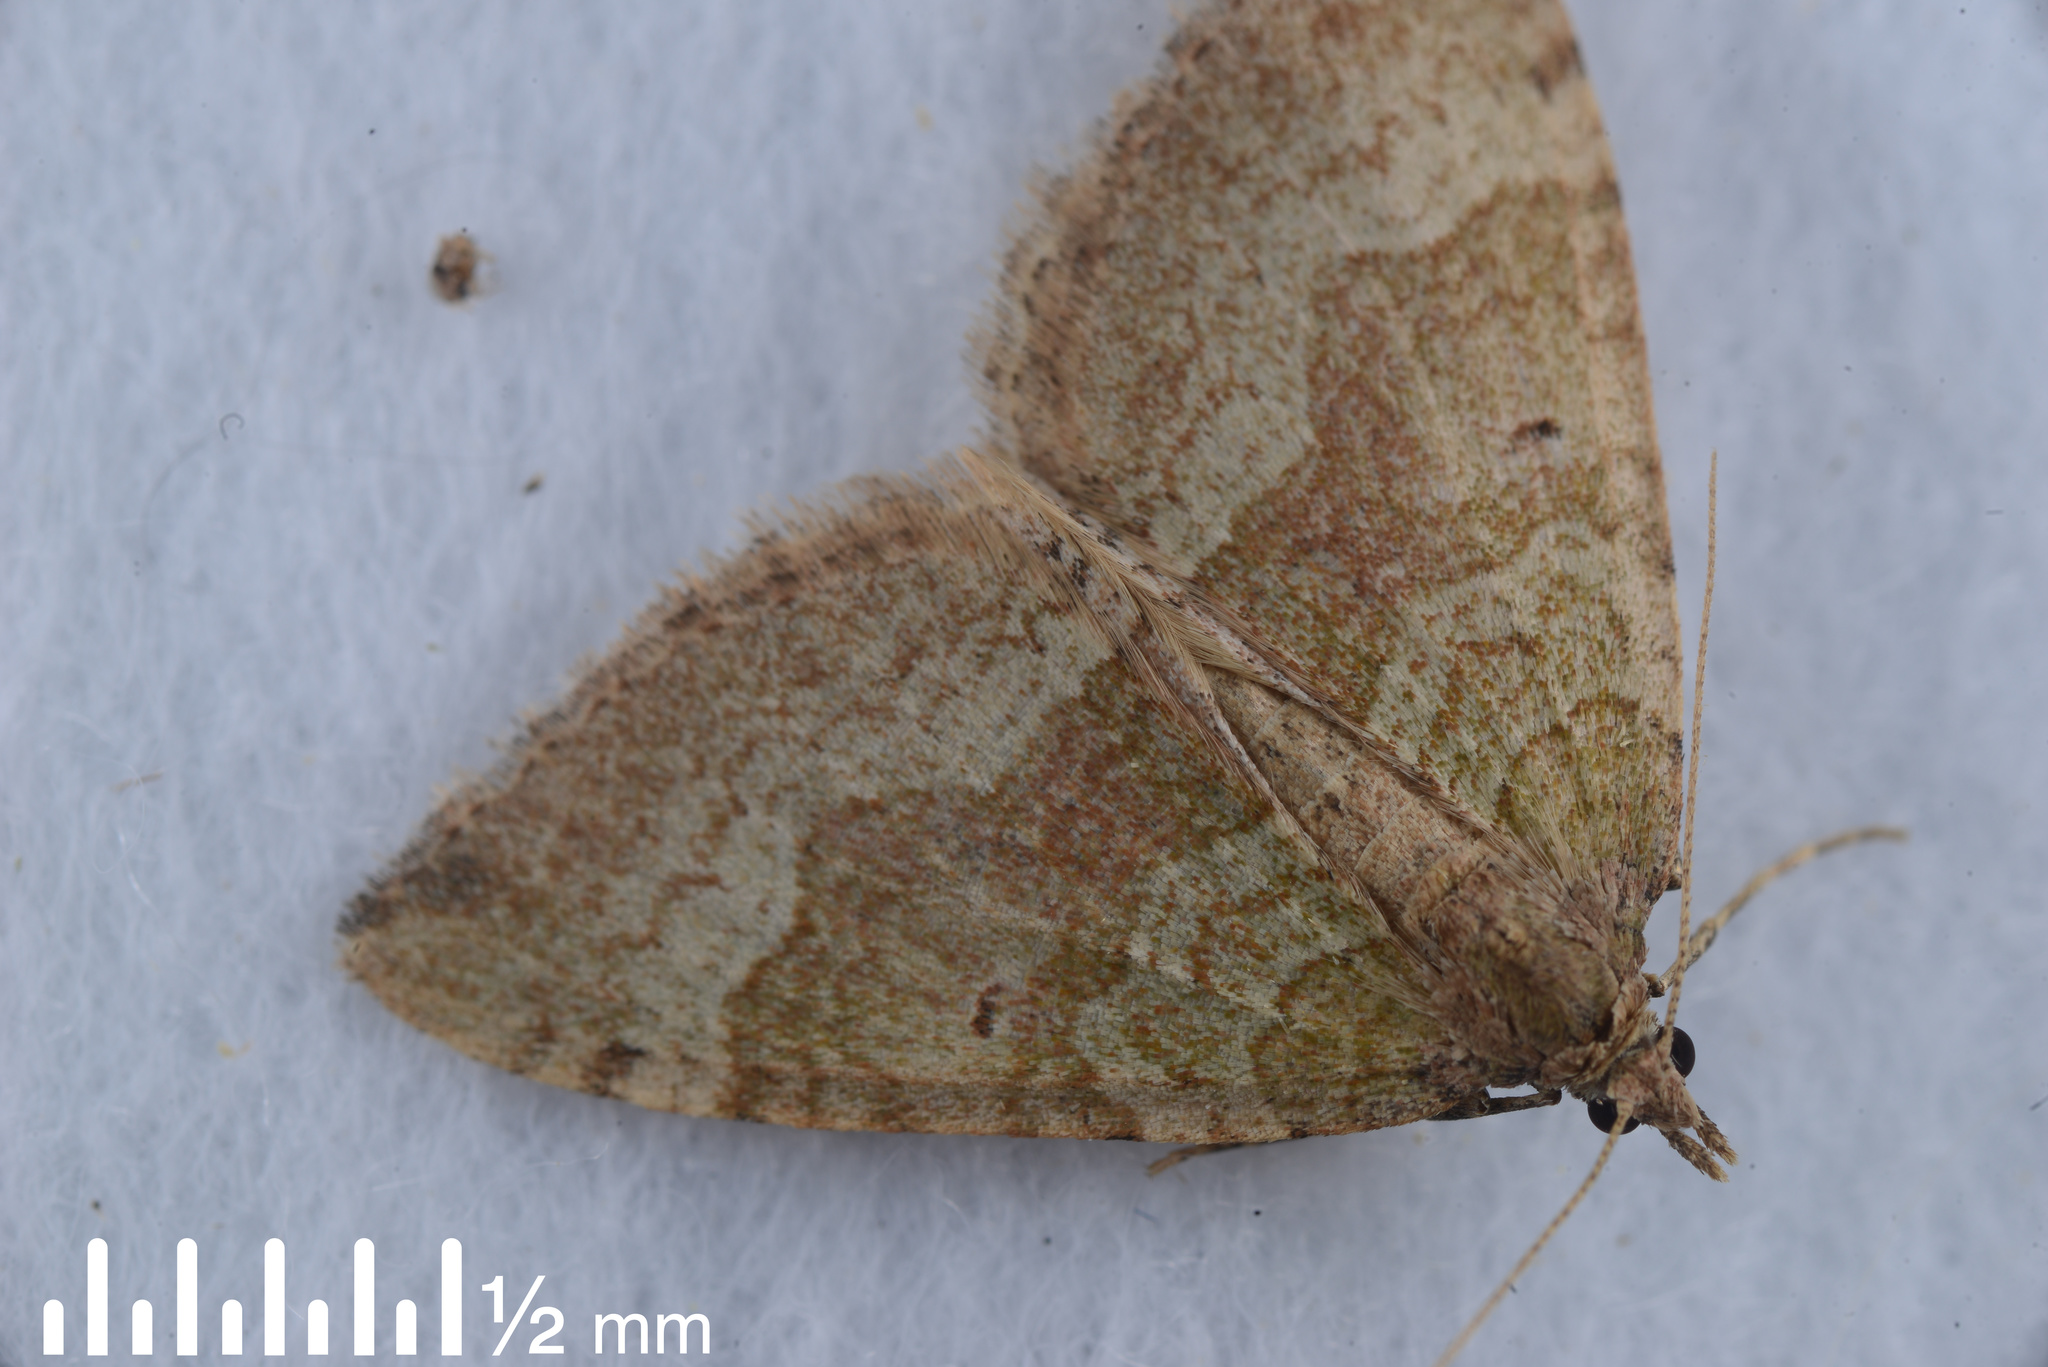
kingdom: Animalia
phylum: Arthropoda
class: Insecta
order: Lepidoptera
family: Geometridae
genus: Epyaxa
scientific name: Epyaxa rosearia
